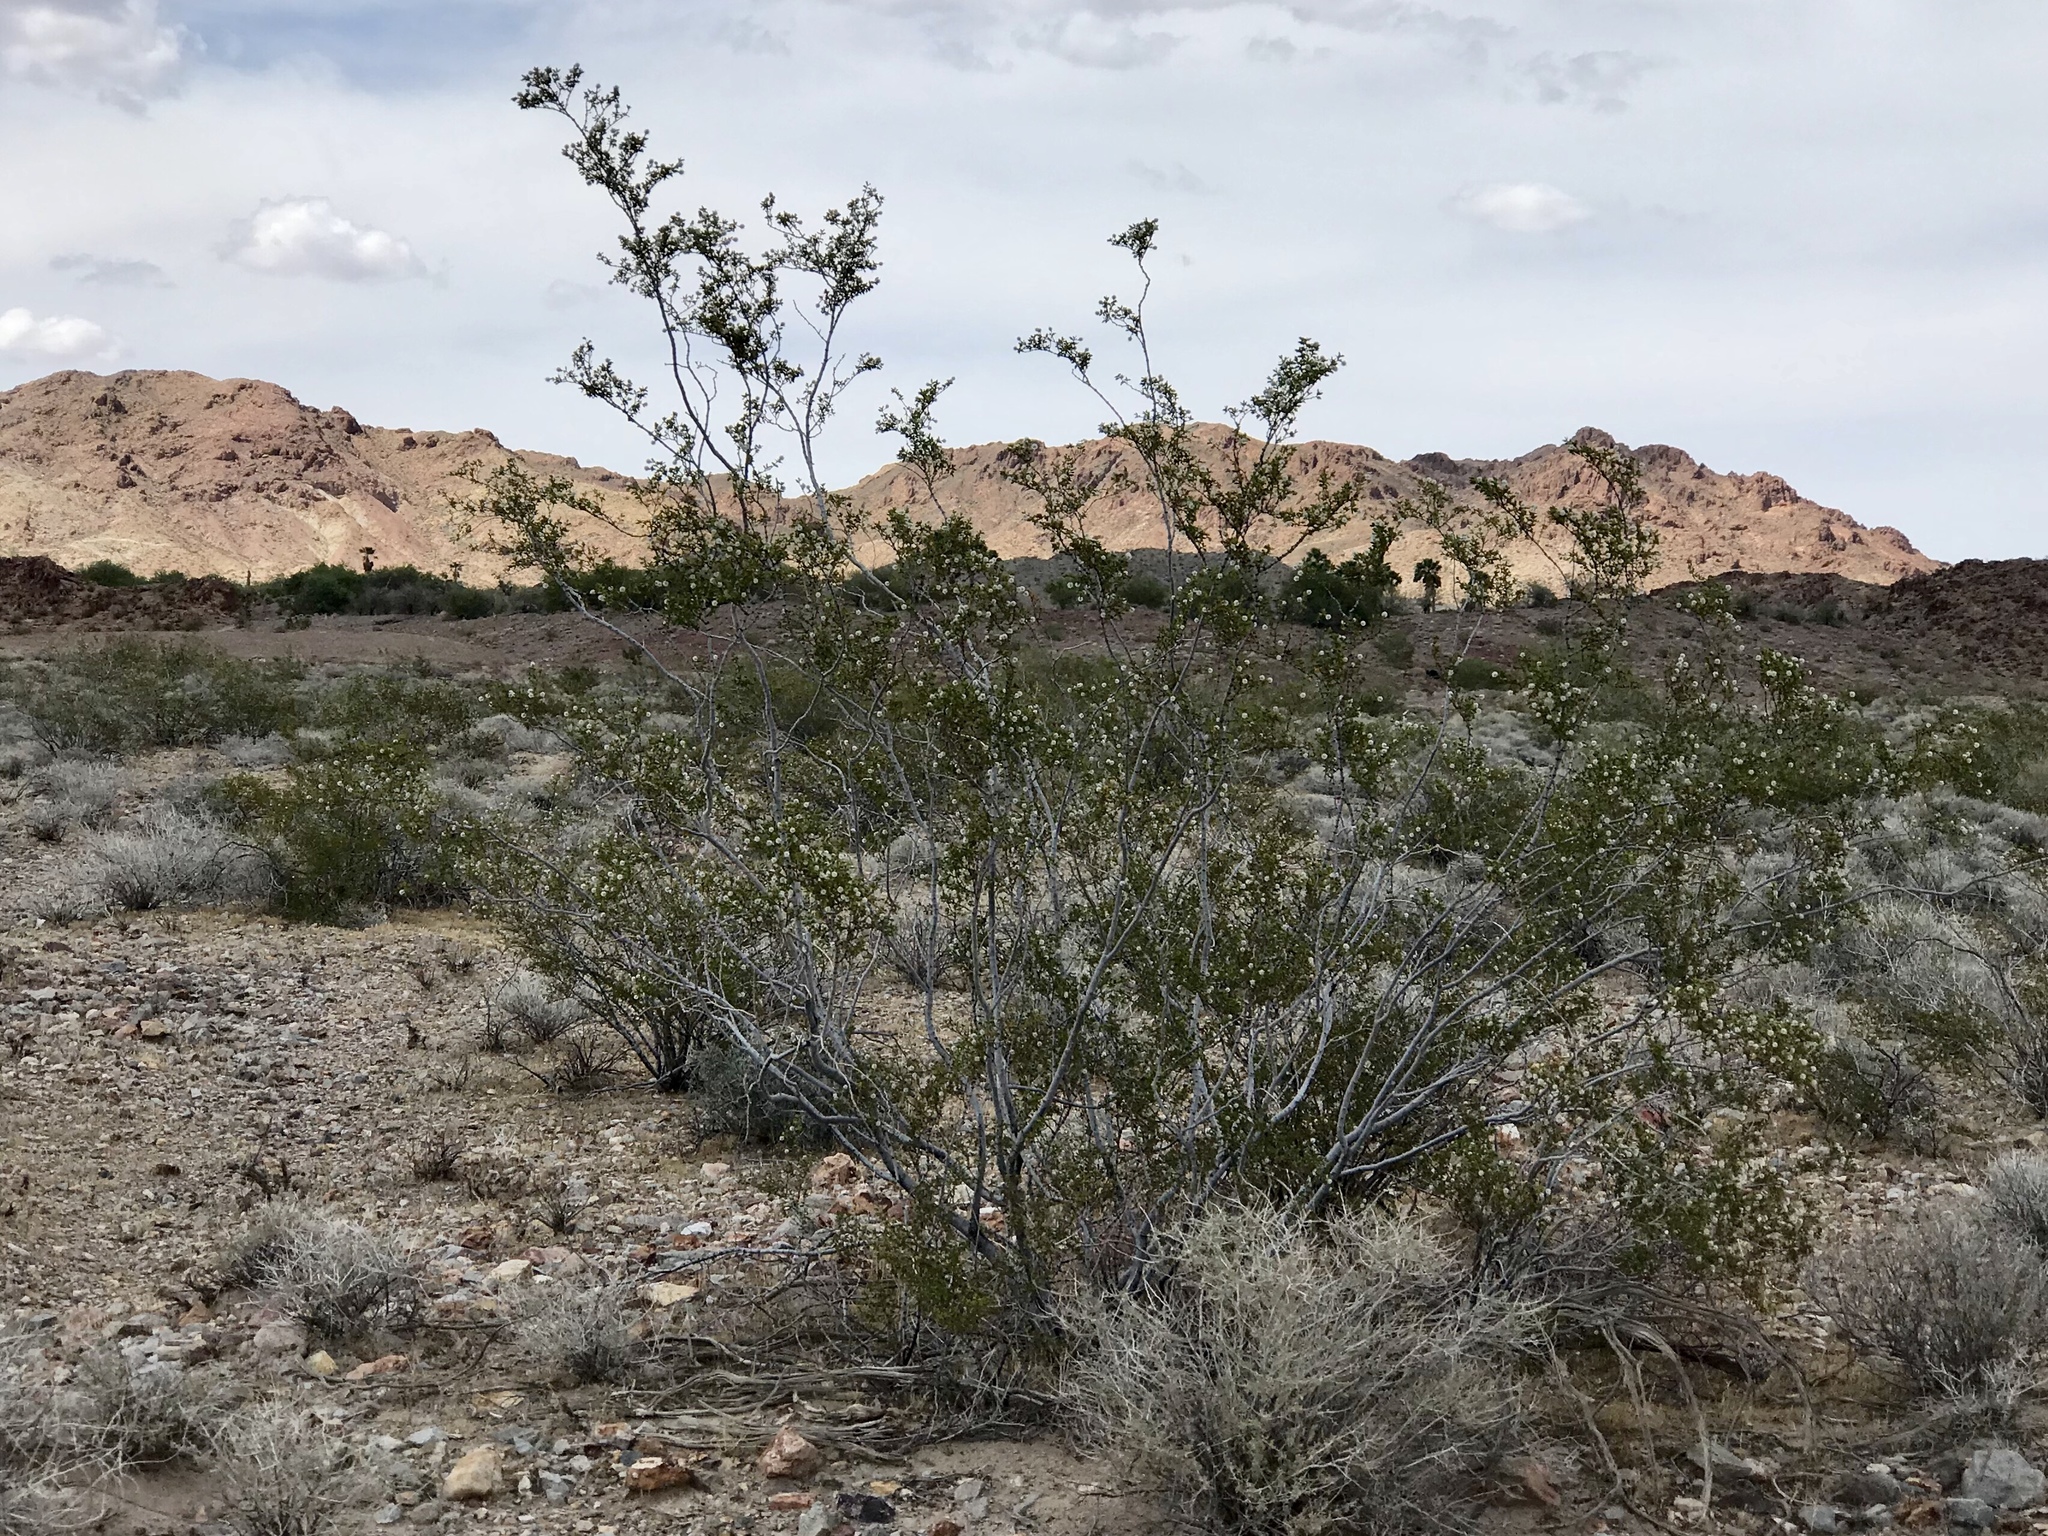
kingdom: Plantae
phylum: Tracheophyta
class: Magnoliopsida
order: Zygophyllales
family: Zygophyllaceae
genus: Larrea
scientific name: Larrea tridentata
